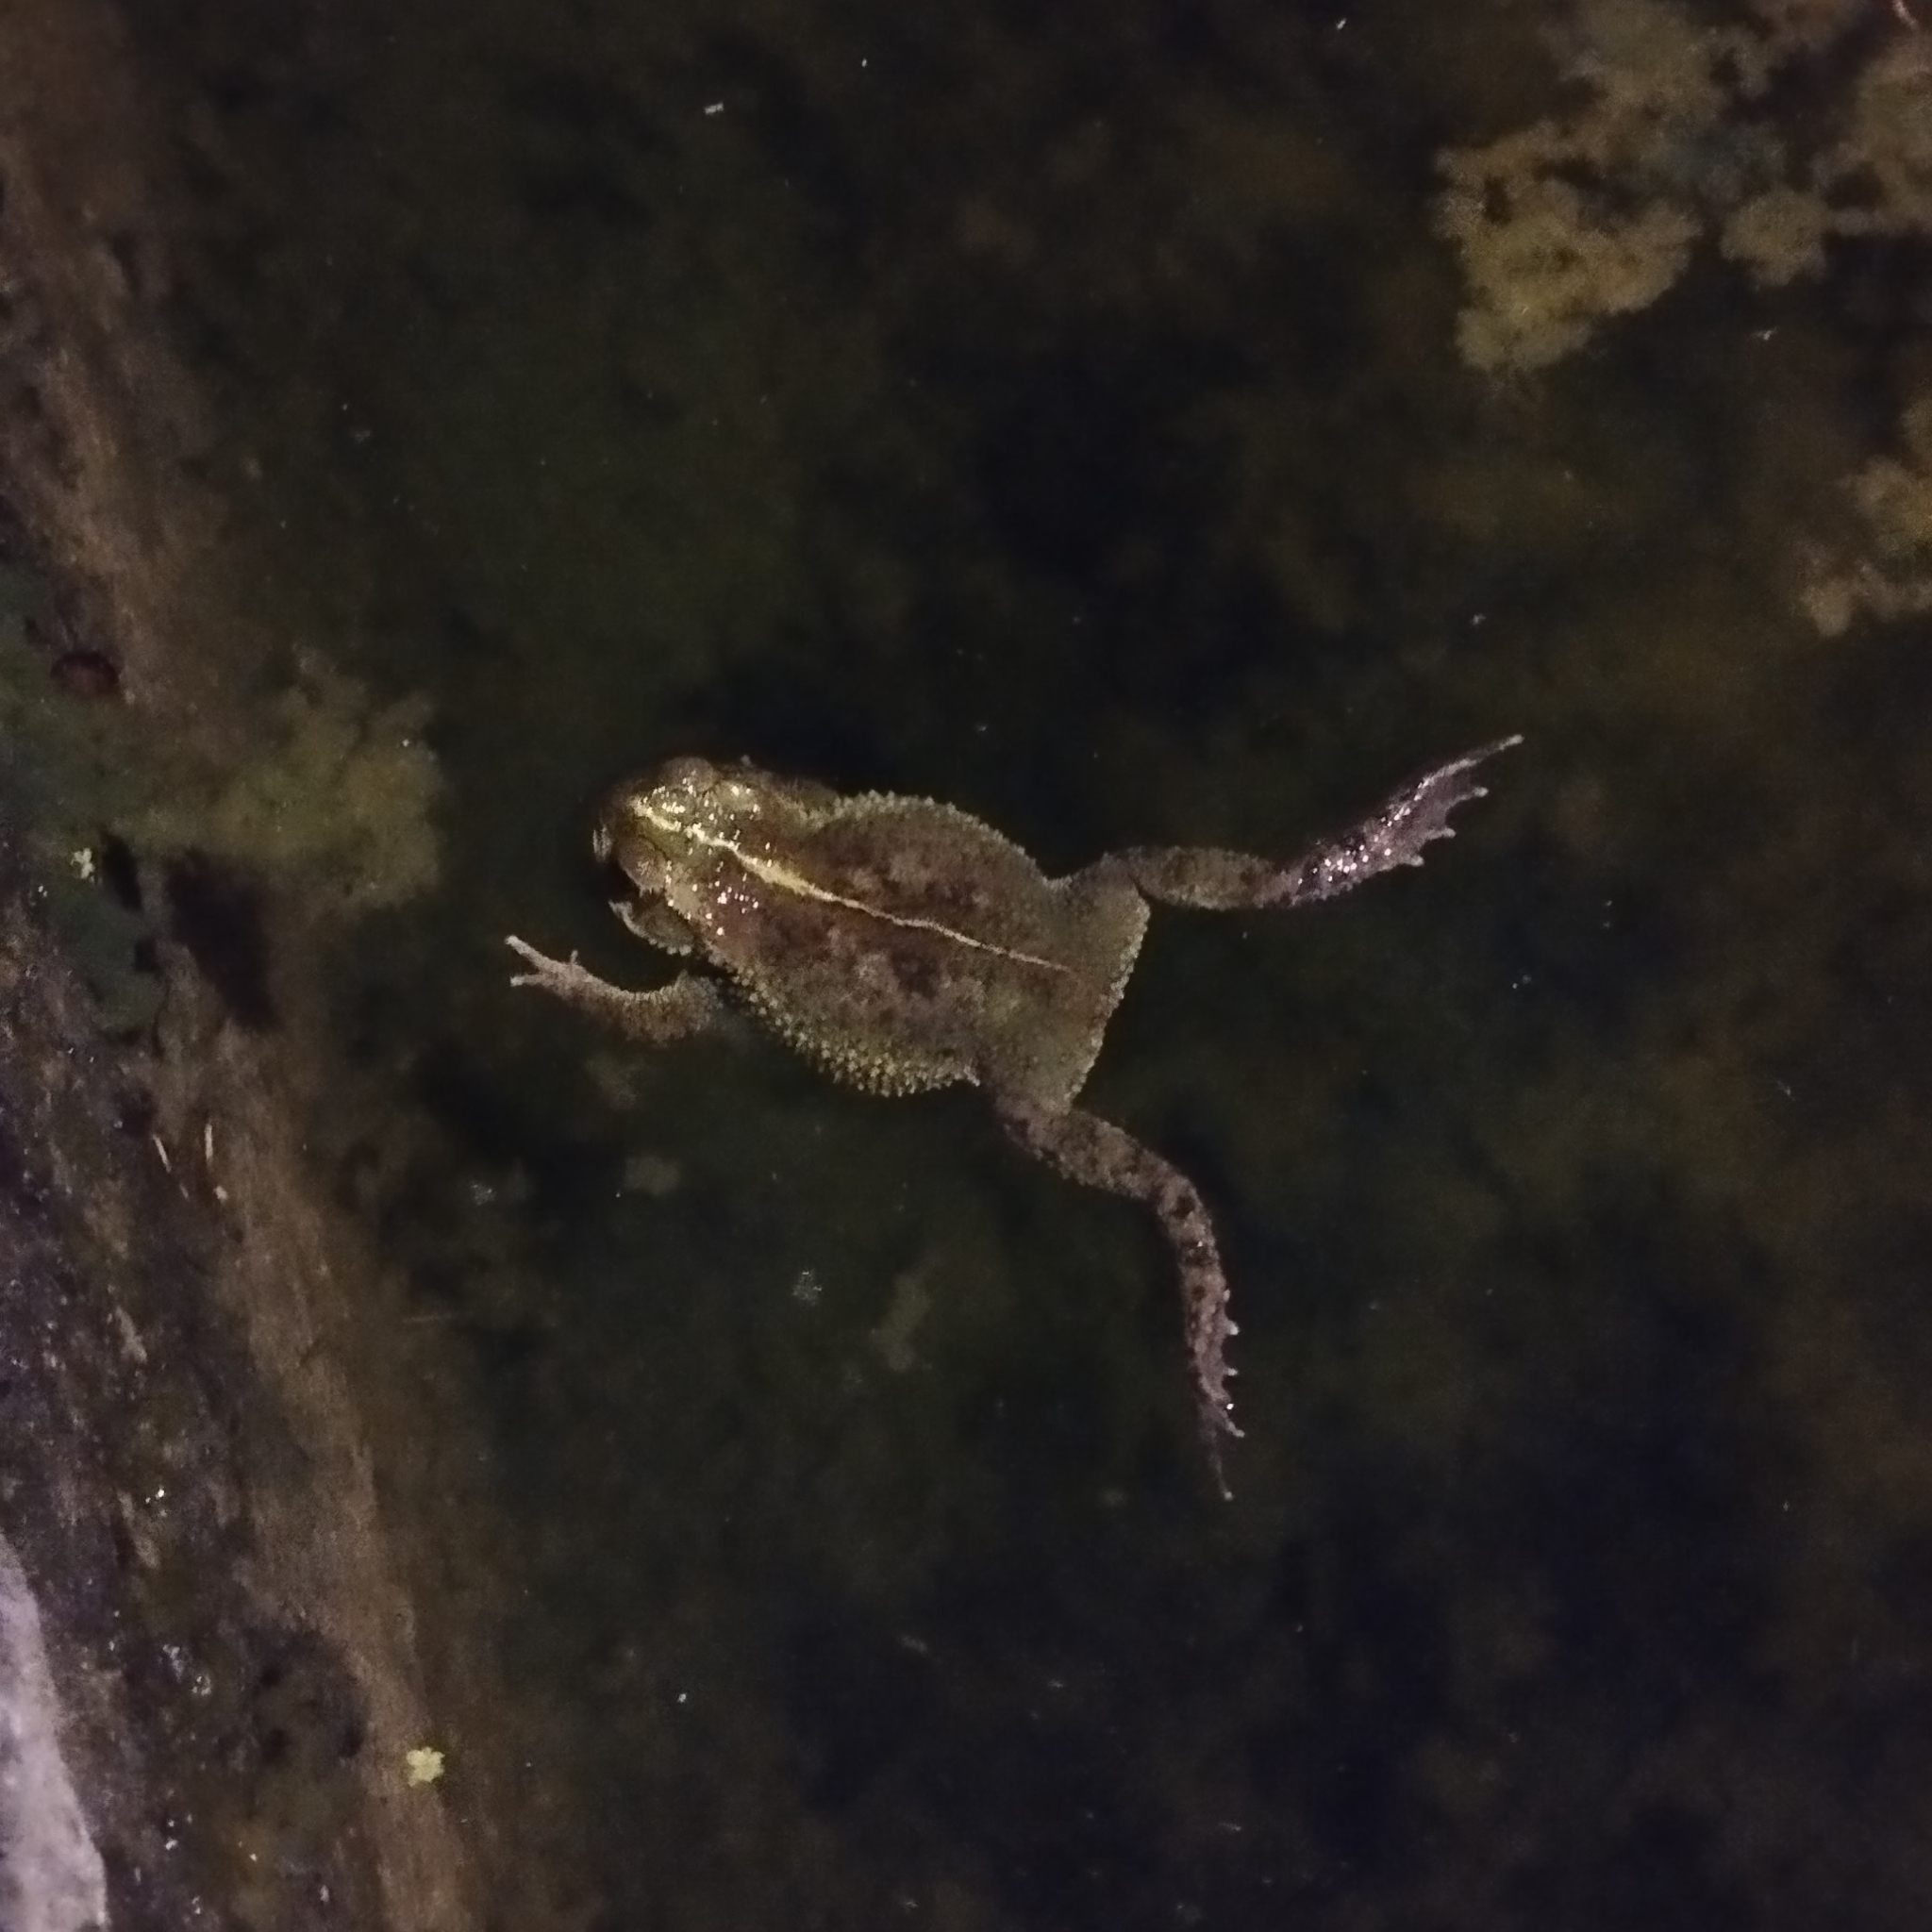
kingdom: Animalia
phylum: Chordata
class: Amphibia
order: Anura
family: Bufonidae
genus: Rhinella
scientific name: Rhinella dorbignyi
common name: D´orbigny’s toad
